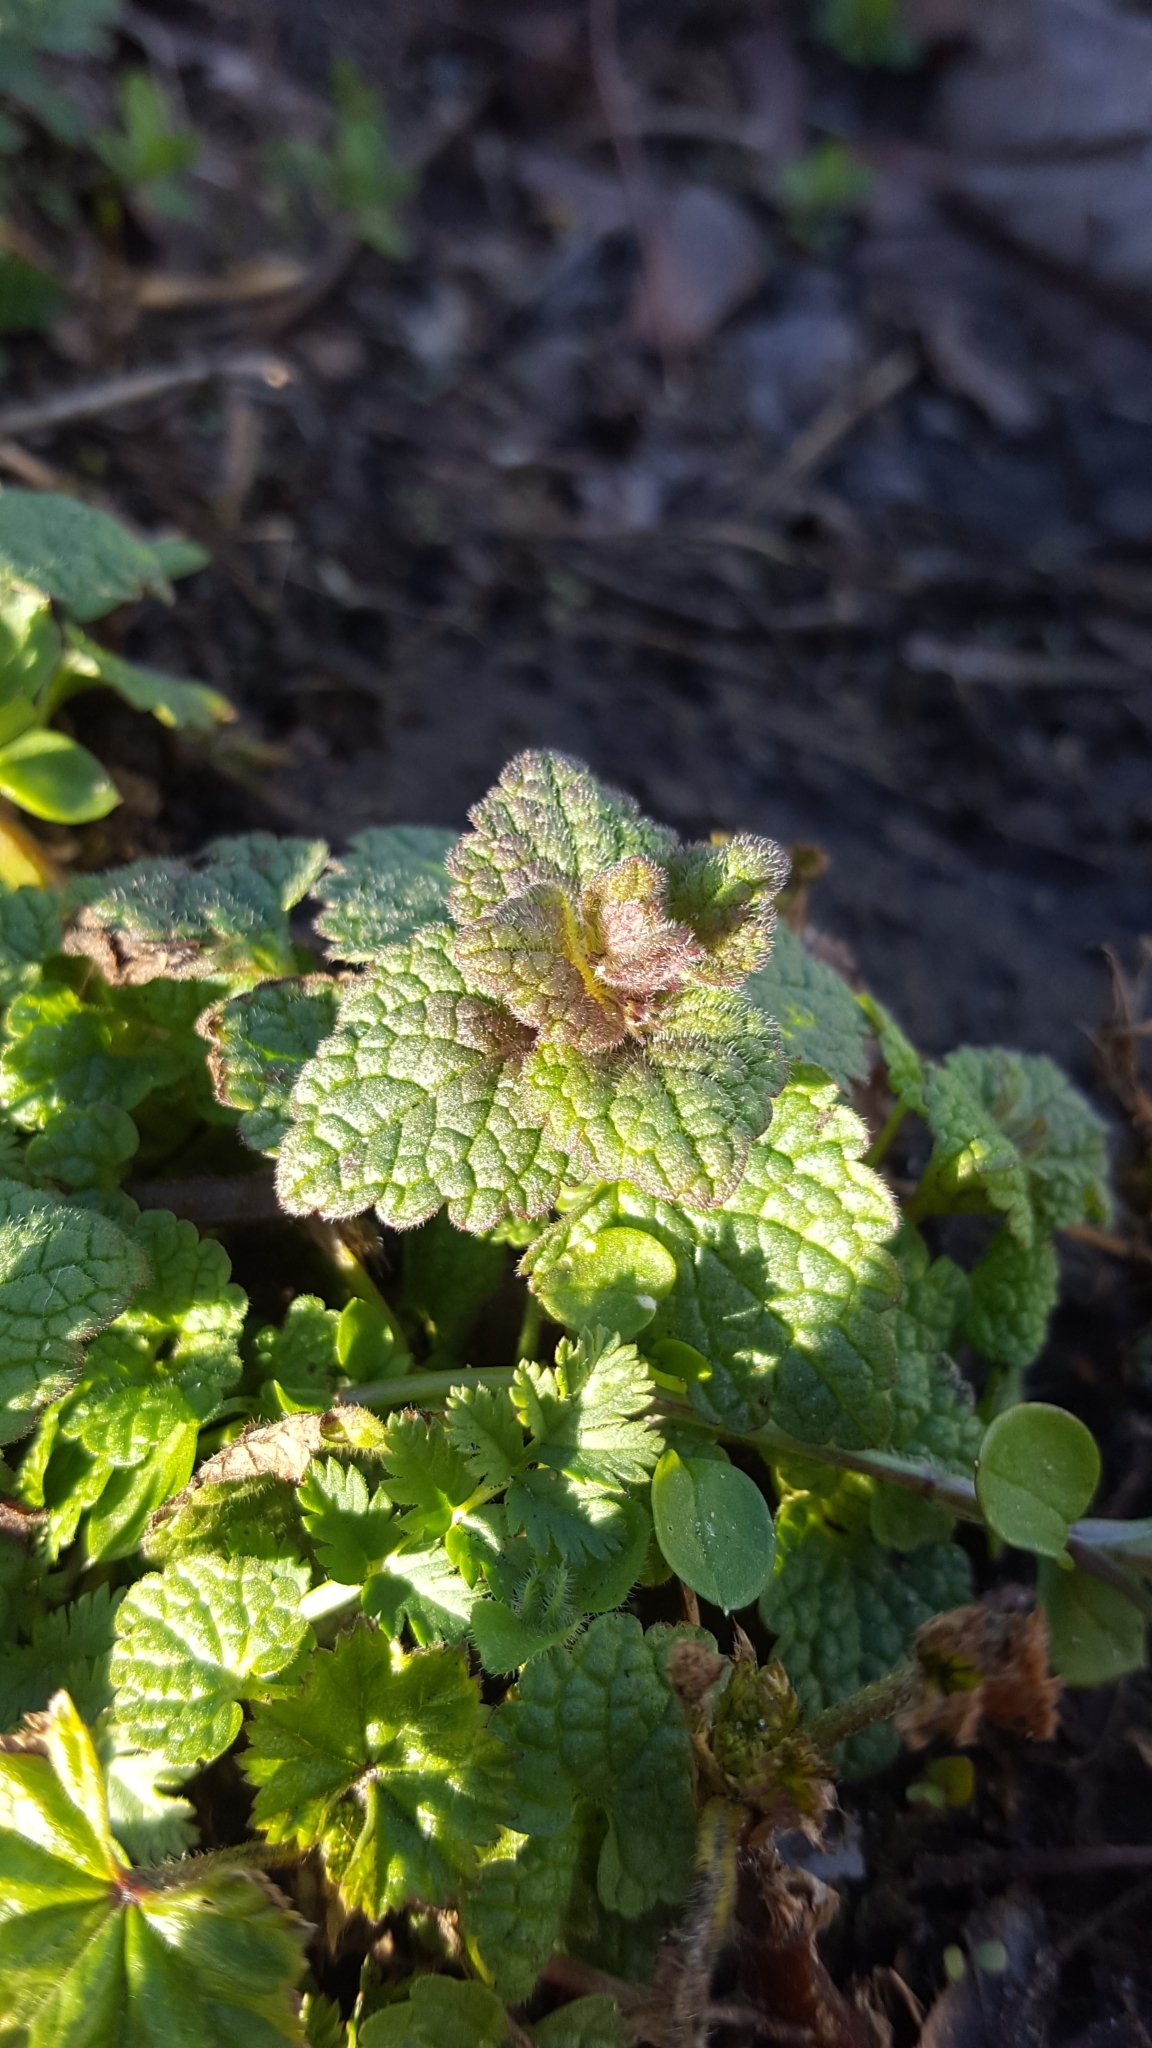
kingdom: Plantae
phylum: Tracheophyta
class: Magnoliopsida
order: Lamiales
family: Lamiaceae
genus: Lamium
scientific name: Lamium purpureum
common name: Red dead-nettle
